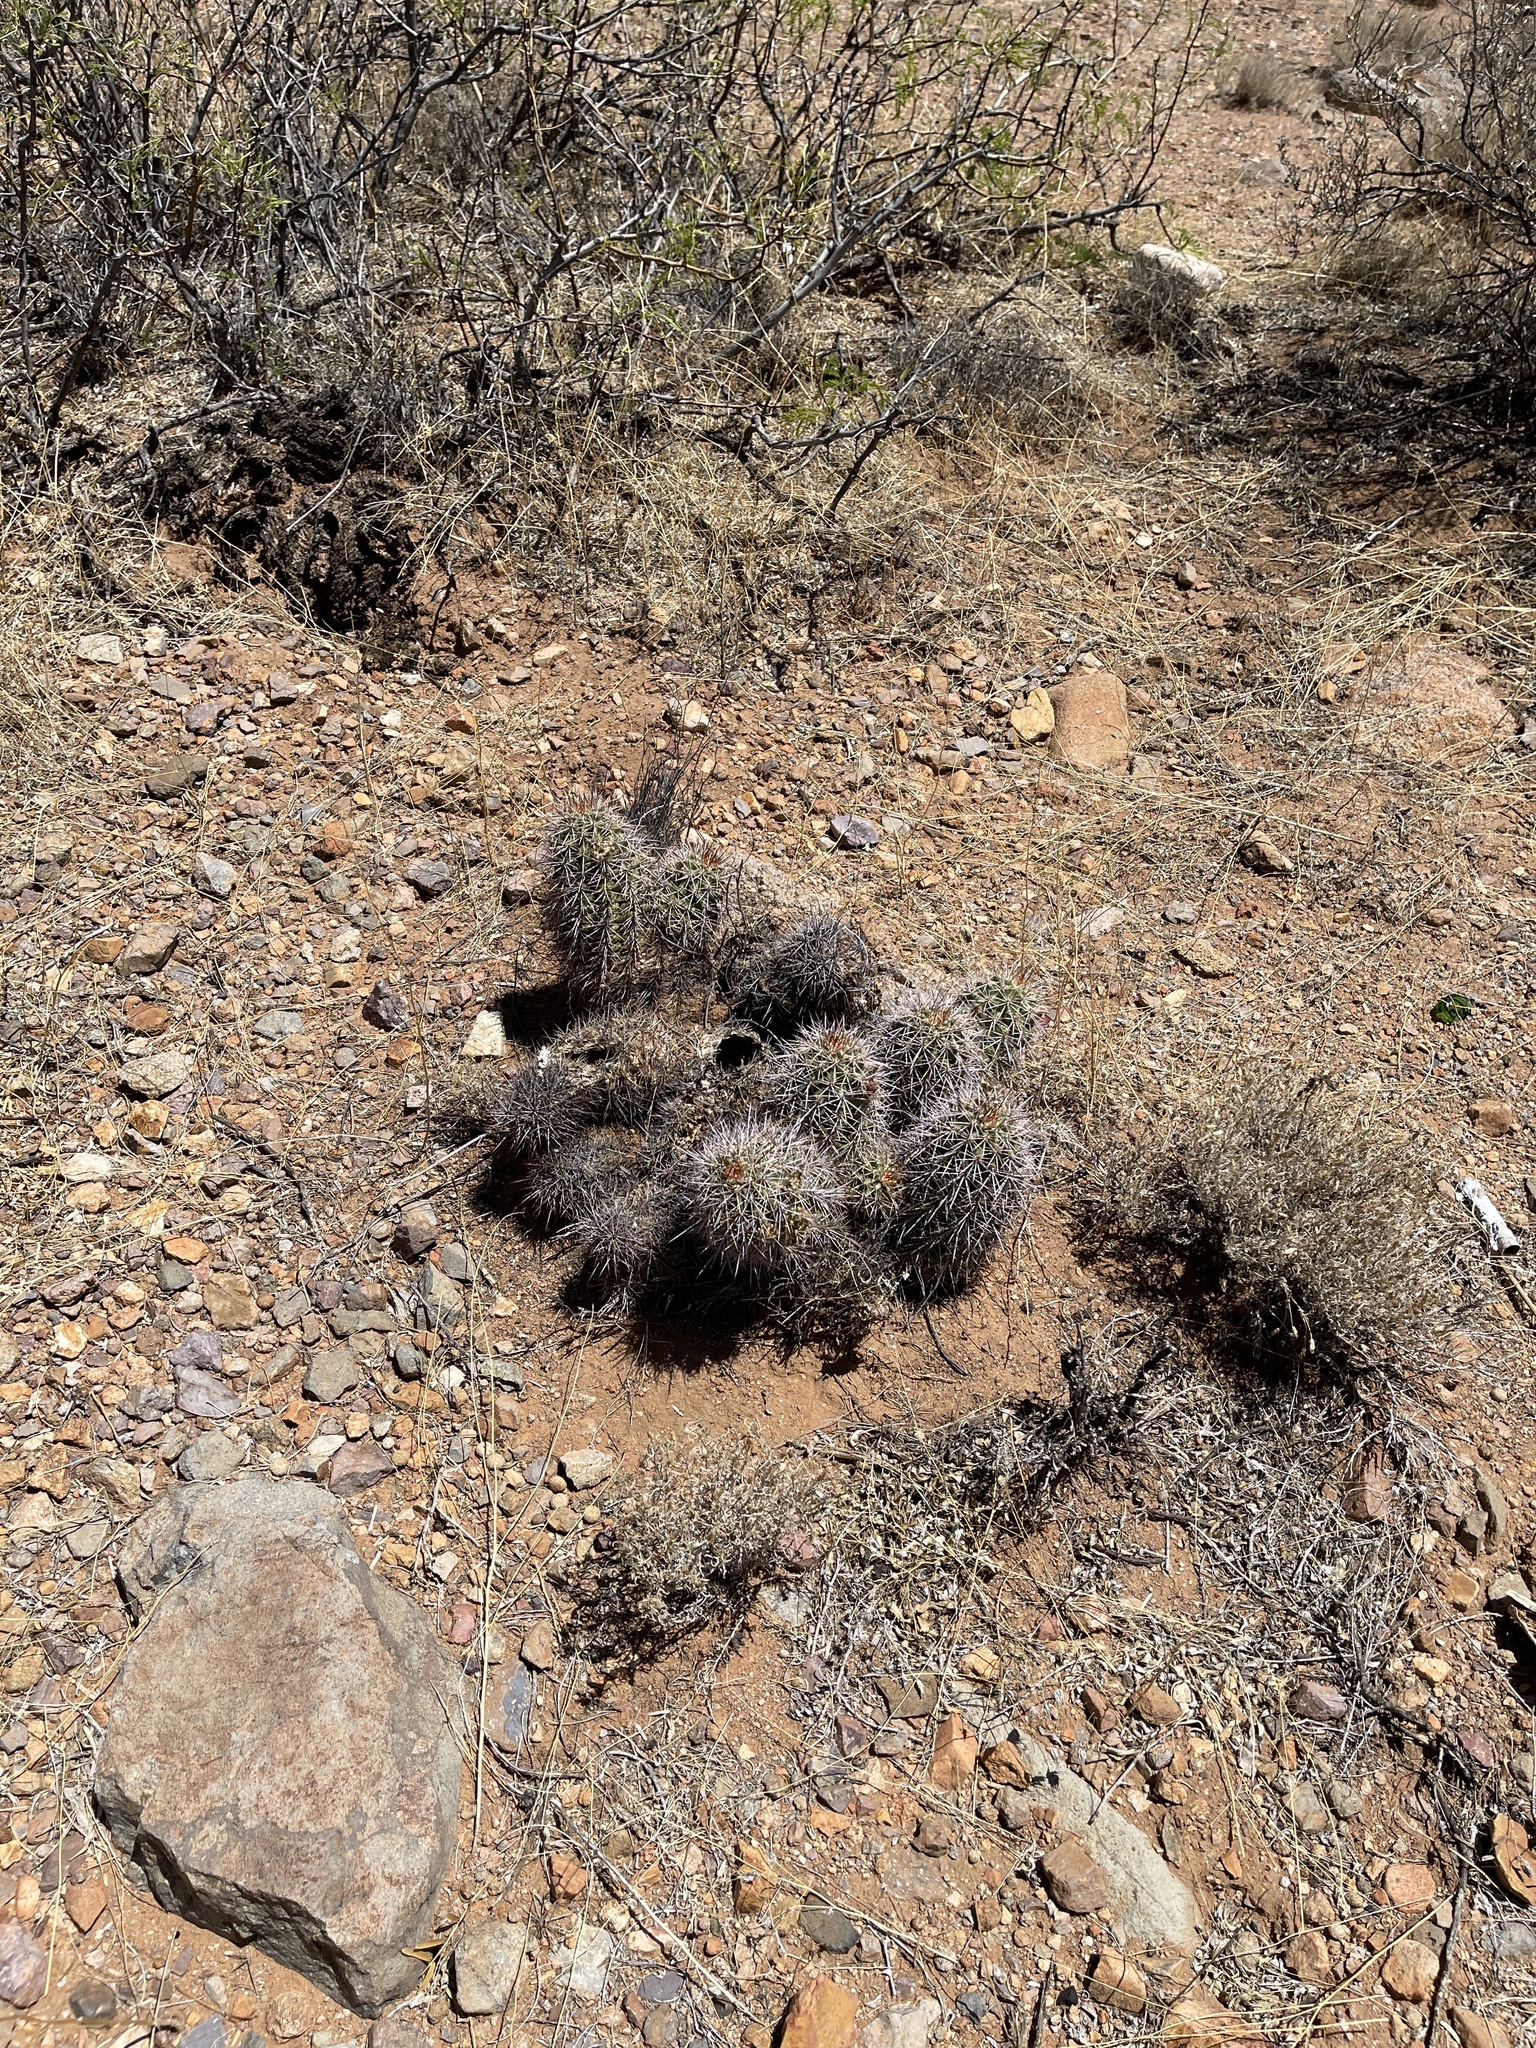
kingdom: Plantae
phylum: Tracheophyta
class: Magnoliopsida
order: Caryophyllales
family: Cactaceae
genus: Echinocereus
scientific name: Echinocereus coccineus
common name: Scarlet hedgehog cactus
